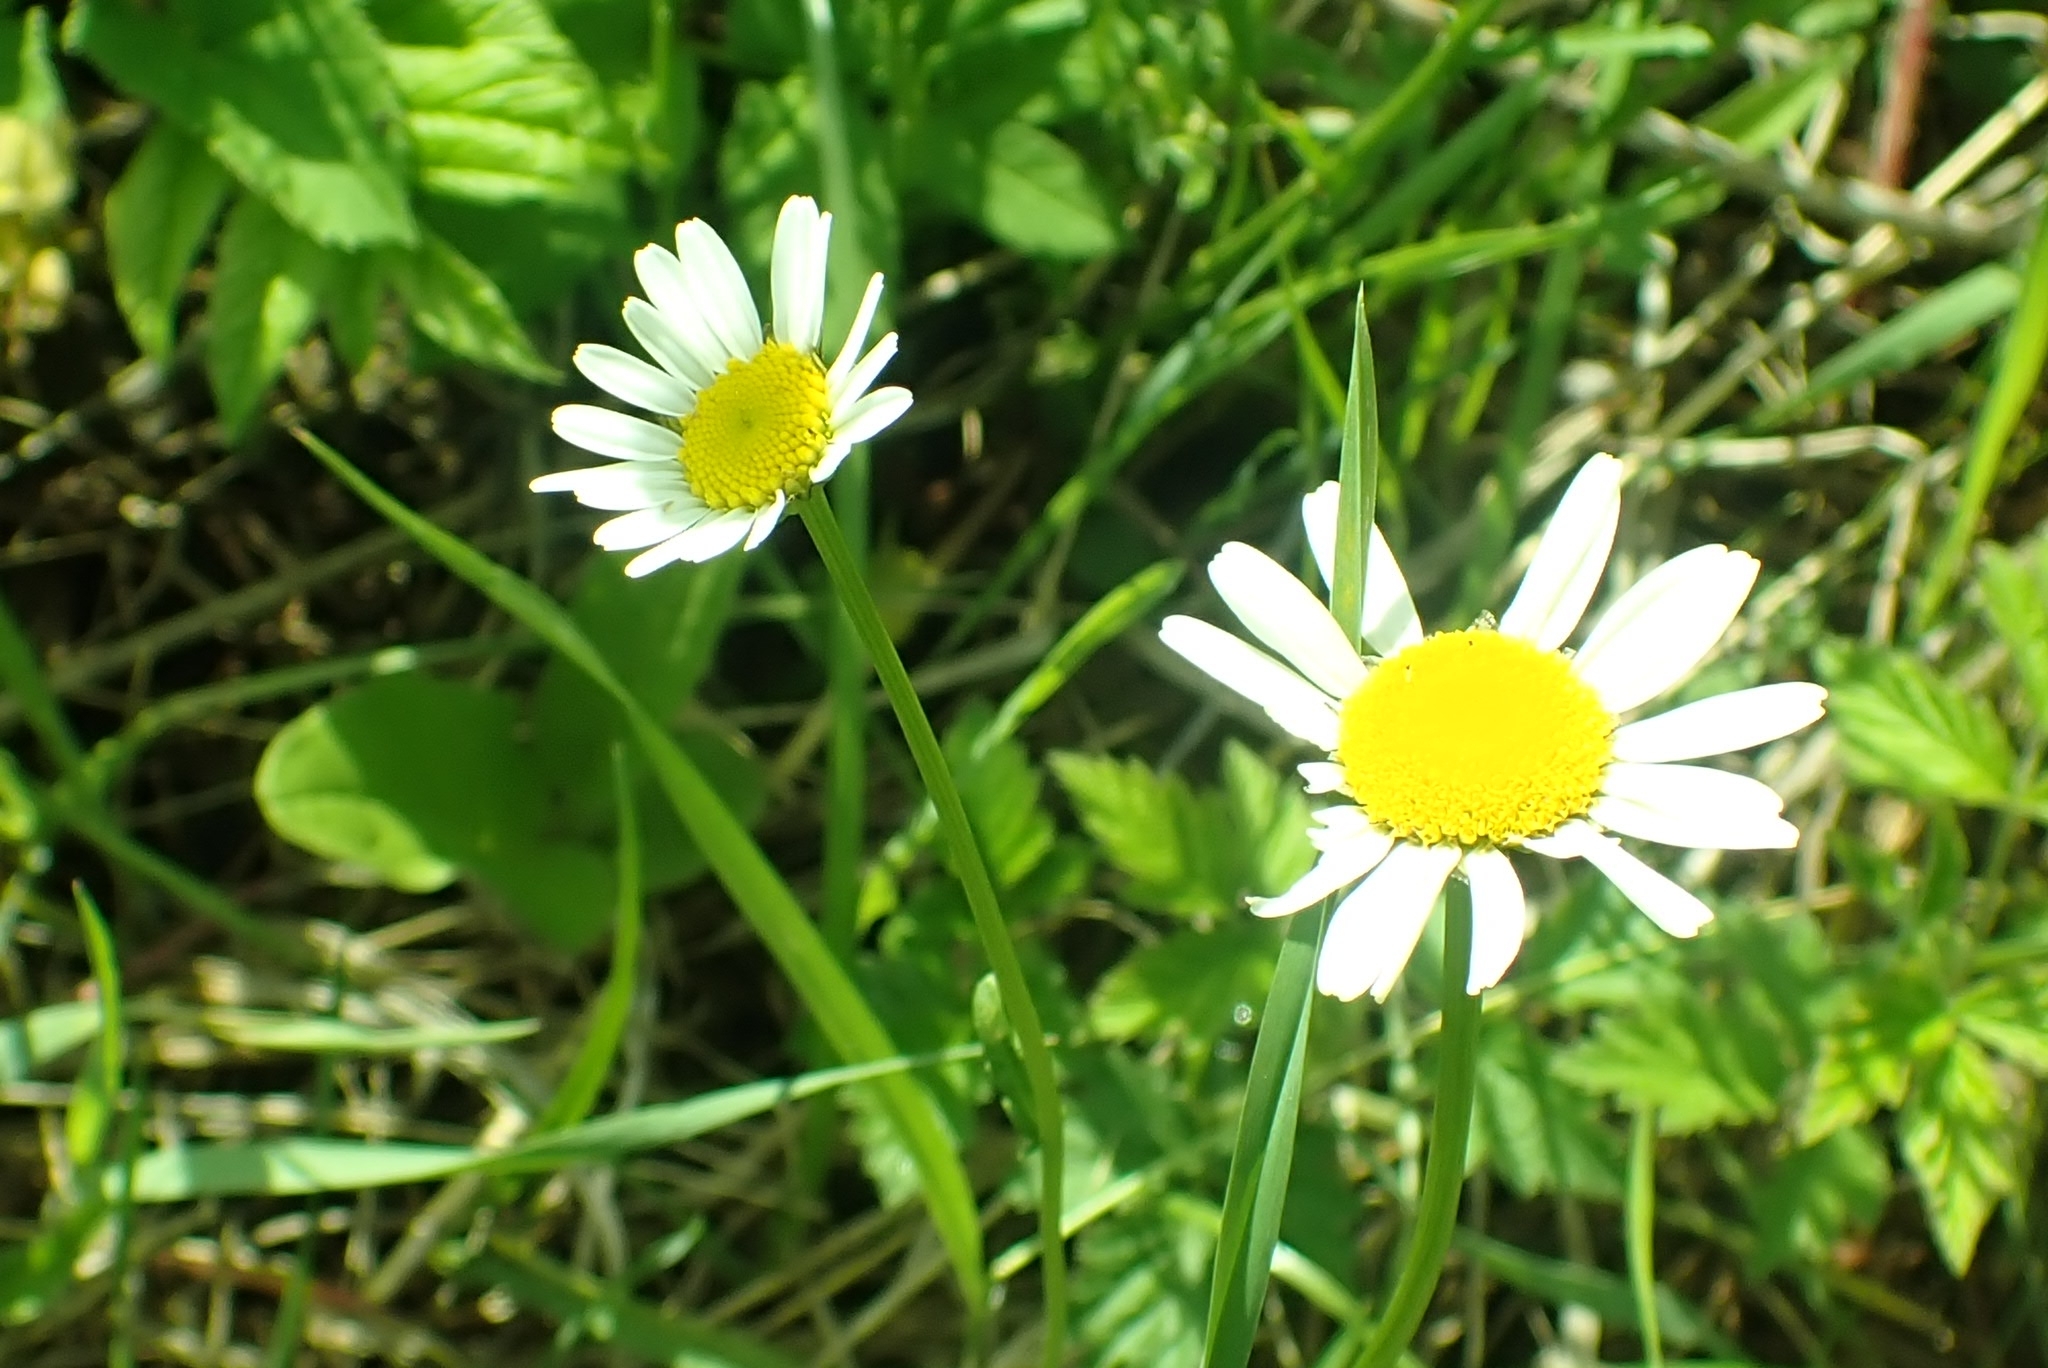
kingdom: Plantae
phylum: Tracheophyta
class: Magnoliopsida
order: Asterales
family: Asteraceae
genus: Leucanthemum
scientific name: Leucanthemum vulgare
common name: Oxeye daisy
